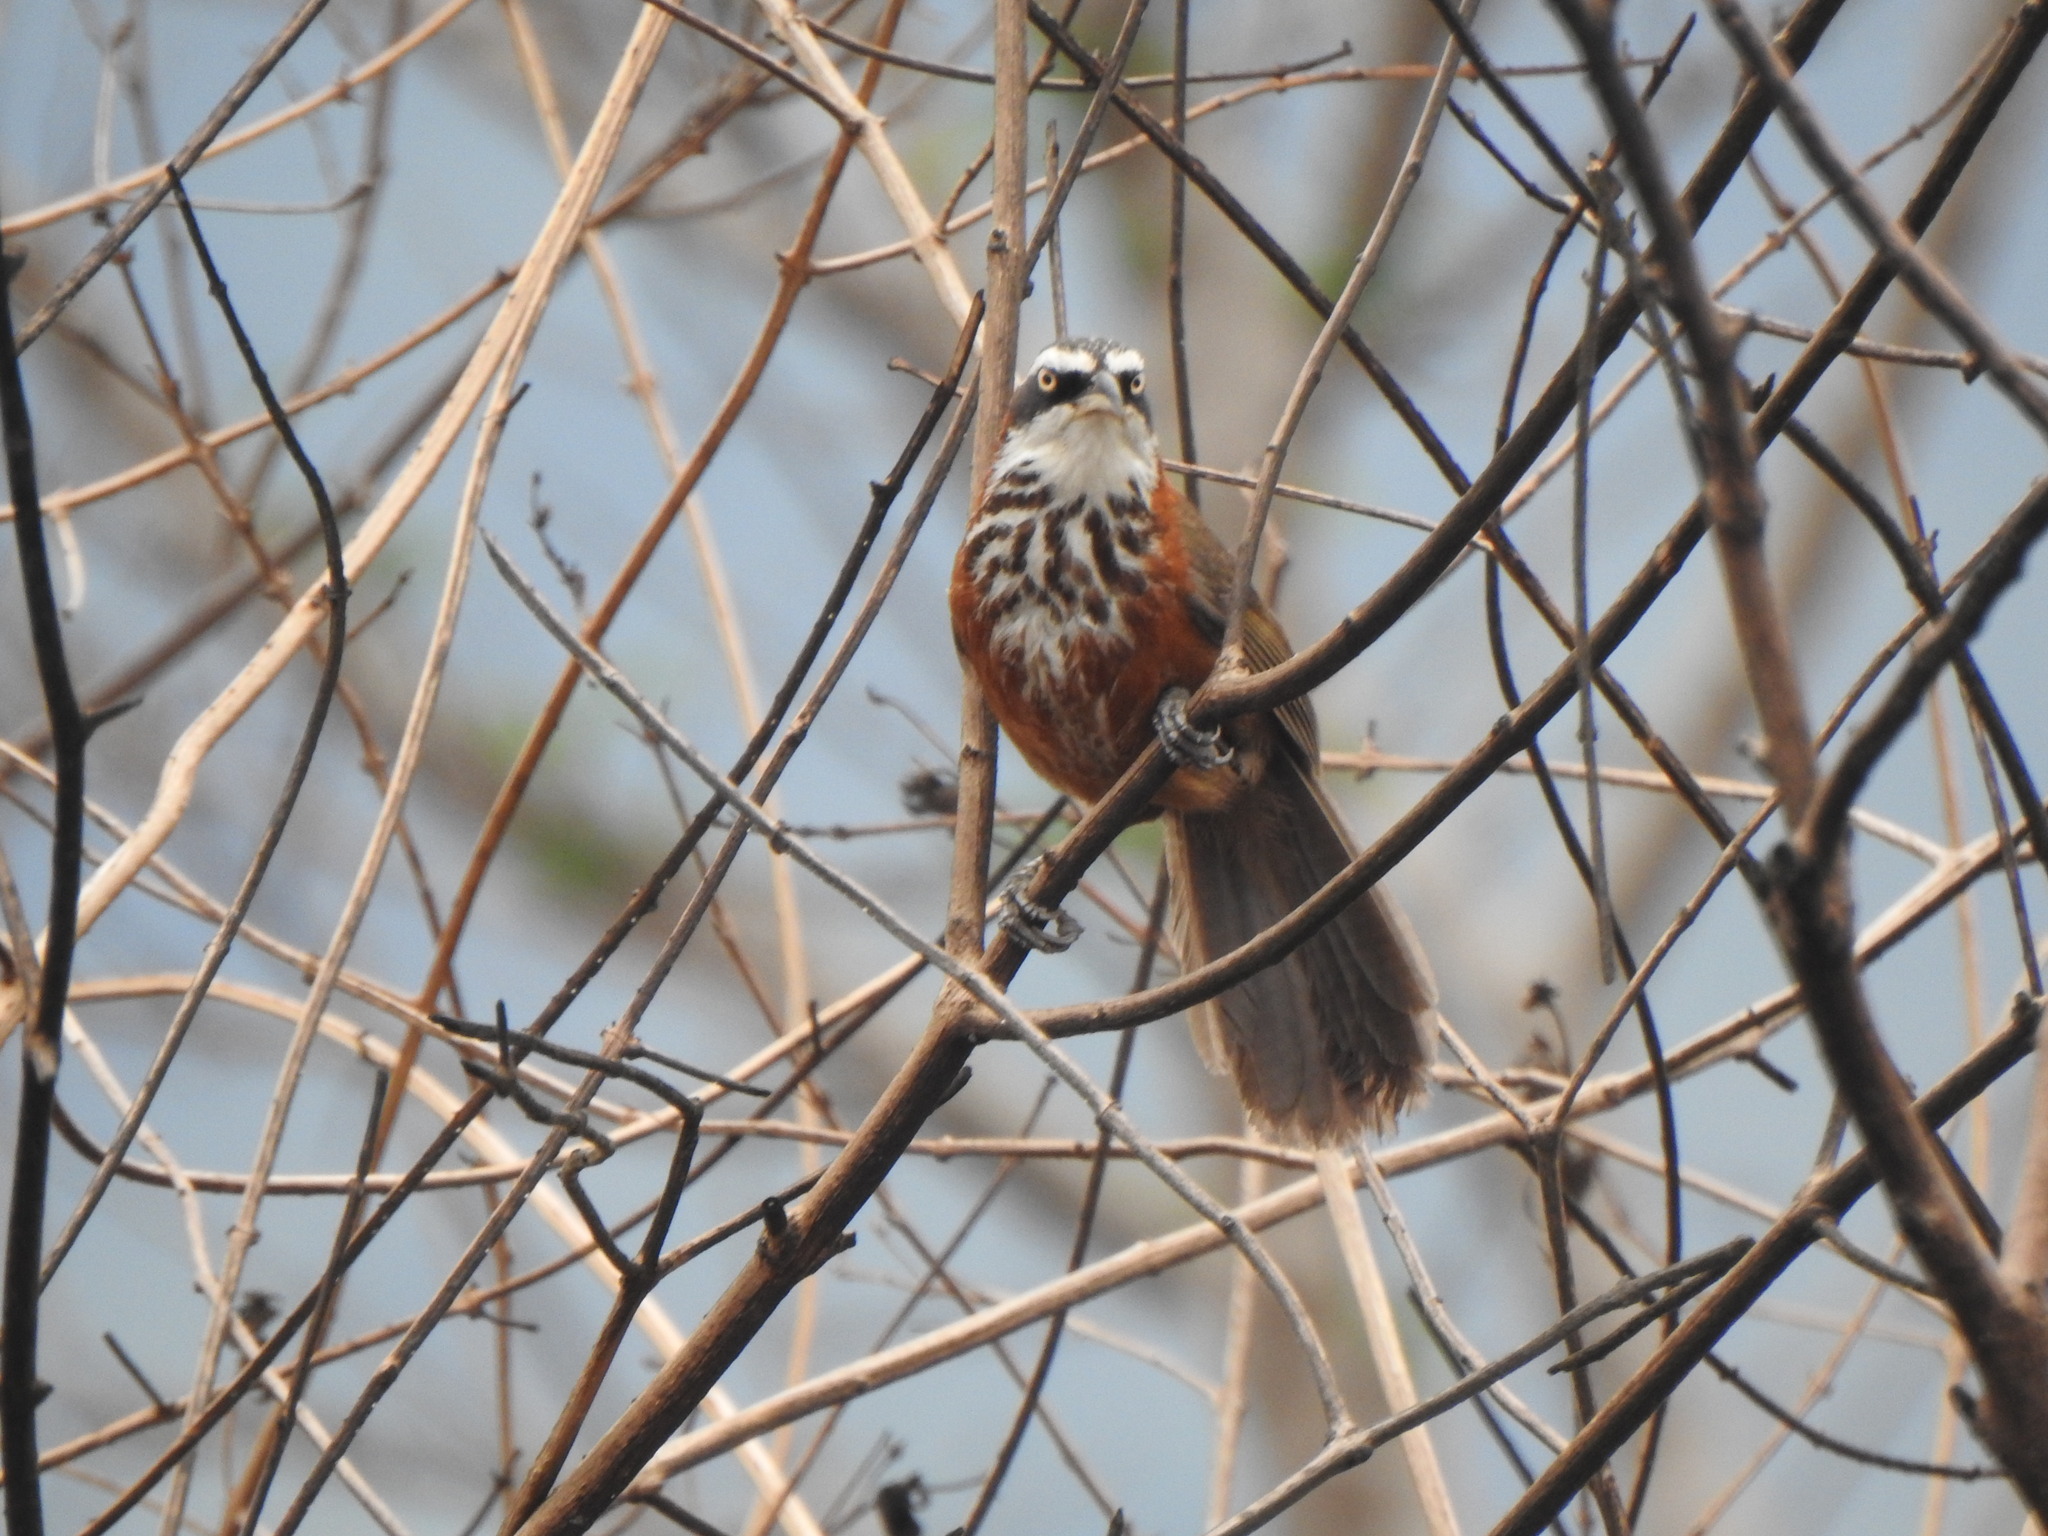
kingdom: Animalia
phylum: Chordata
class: Aves
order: Passeriformes
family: Timaliidae
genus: Pomatorhinus
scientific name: Pomatorhinus musicus
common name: Taiwan scimitar-babbler
